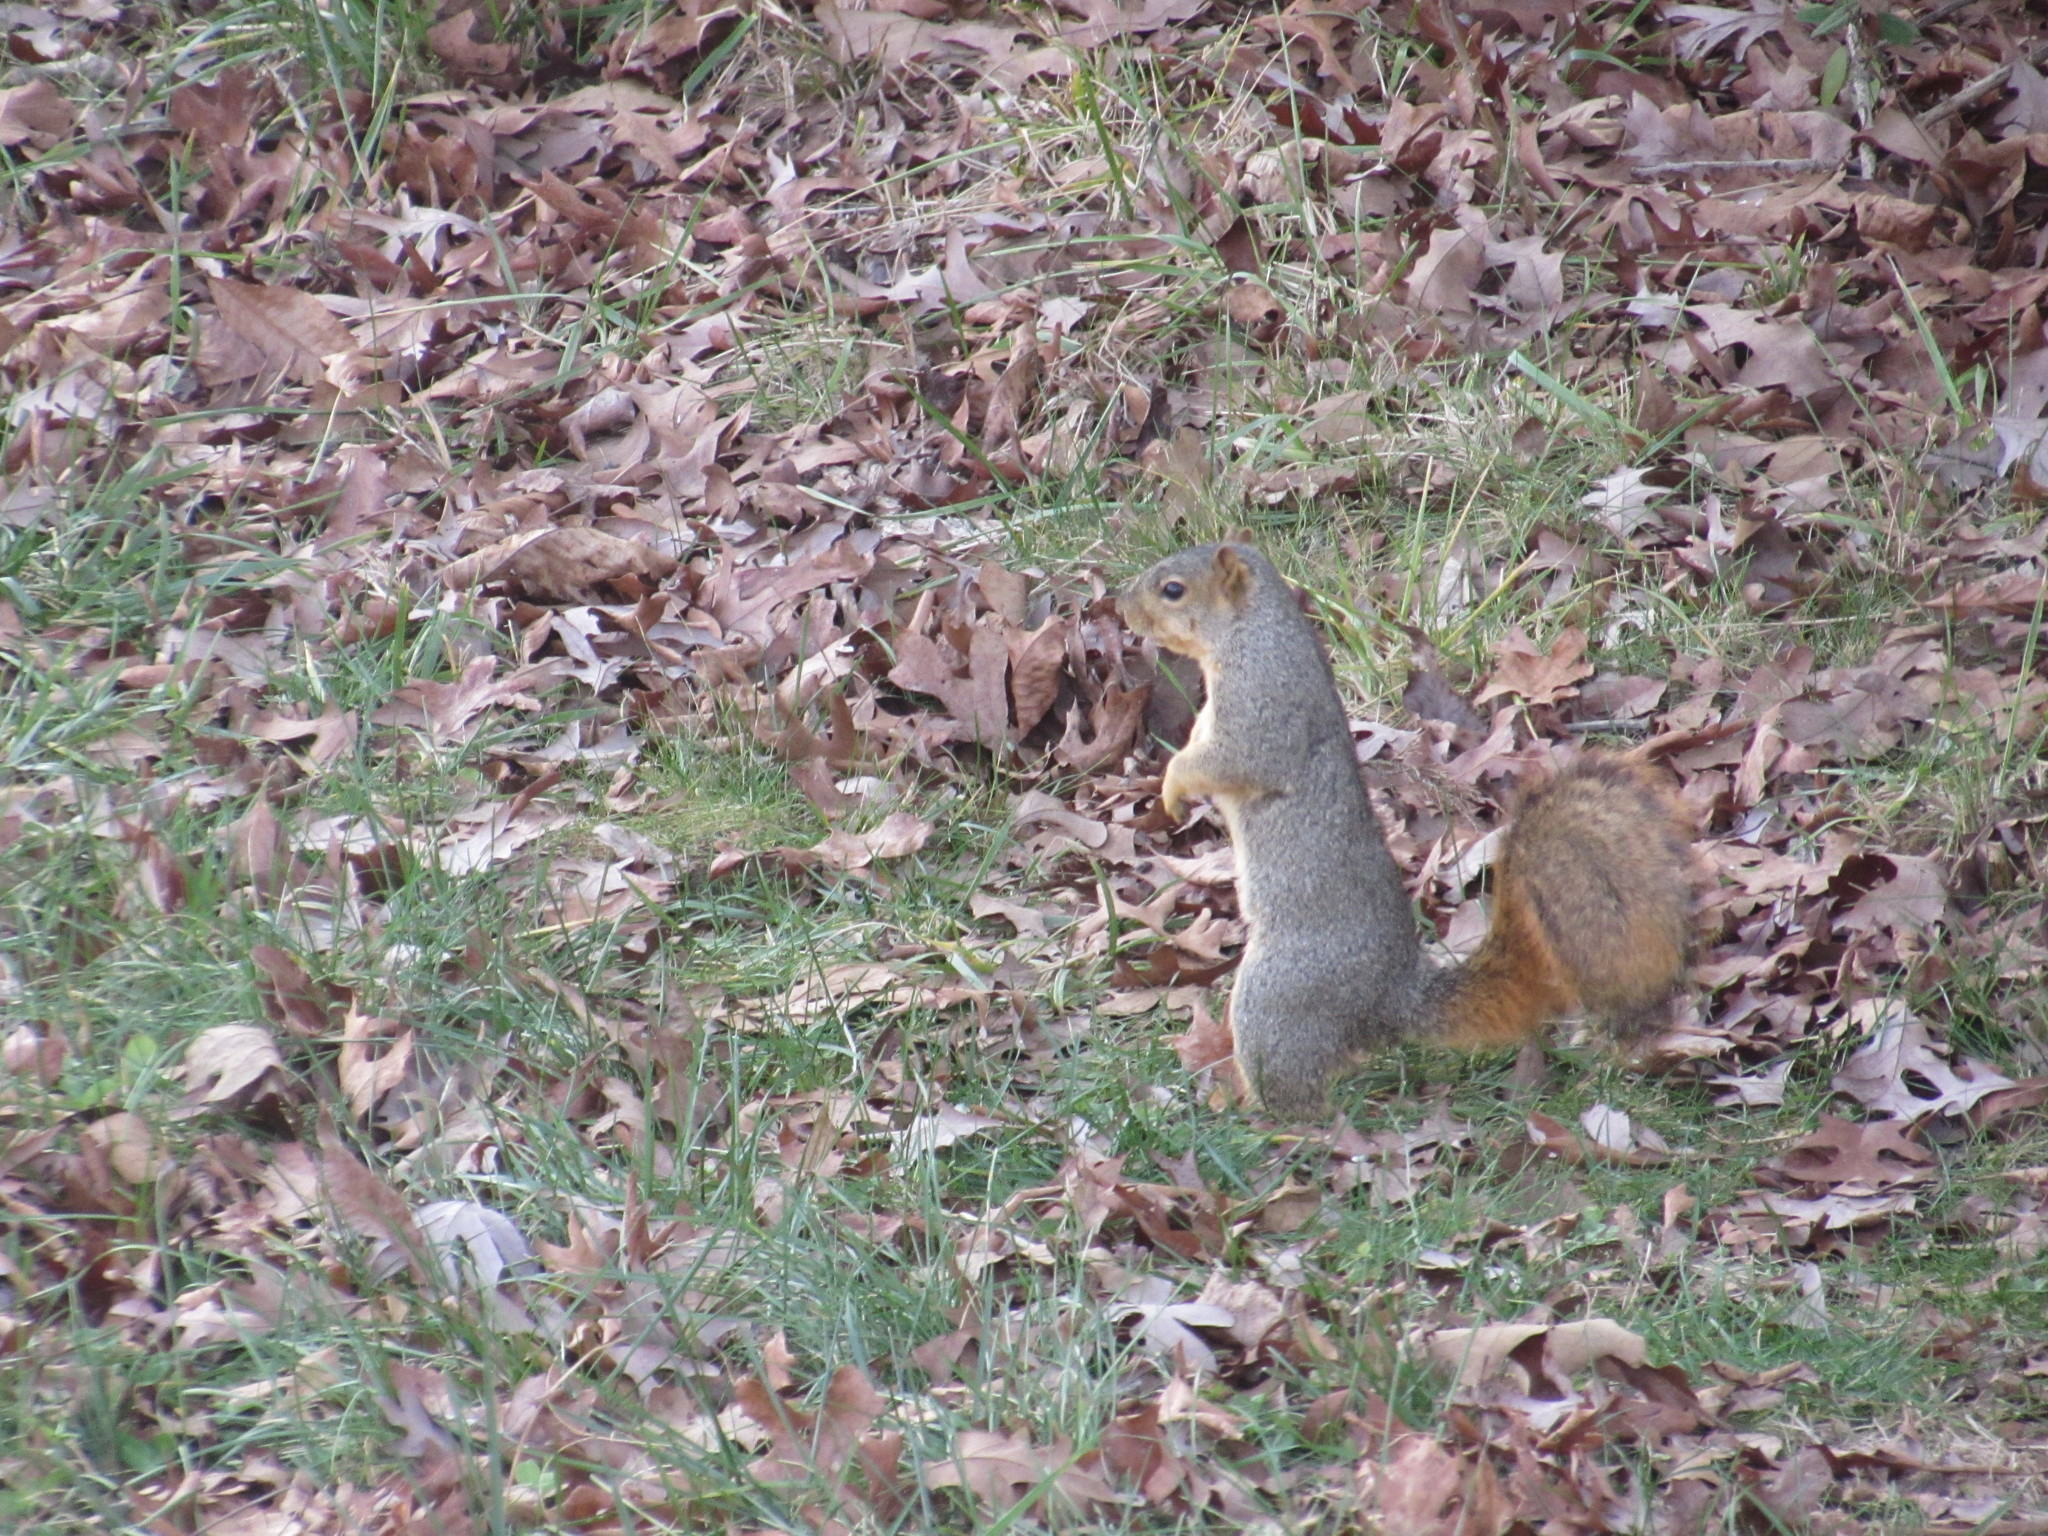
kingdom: Animalia
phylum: Chordata
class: Mammalia
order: Rodentia
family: Sciuridae
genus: Sciurus
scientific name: Sciurus niger
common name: Fox squirrel
